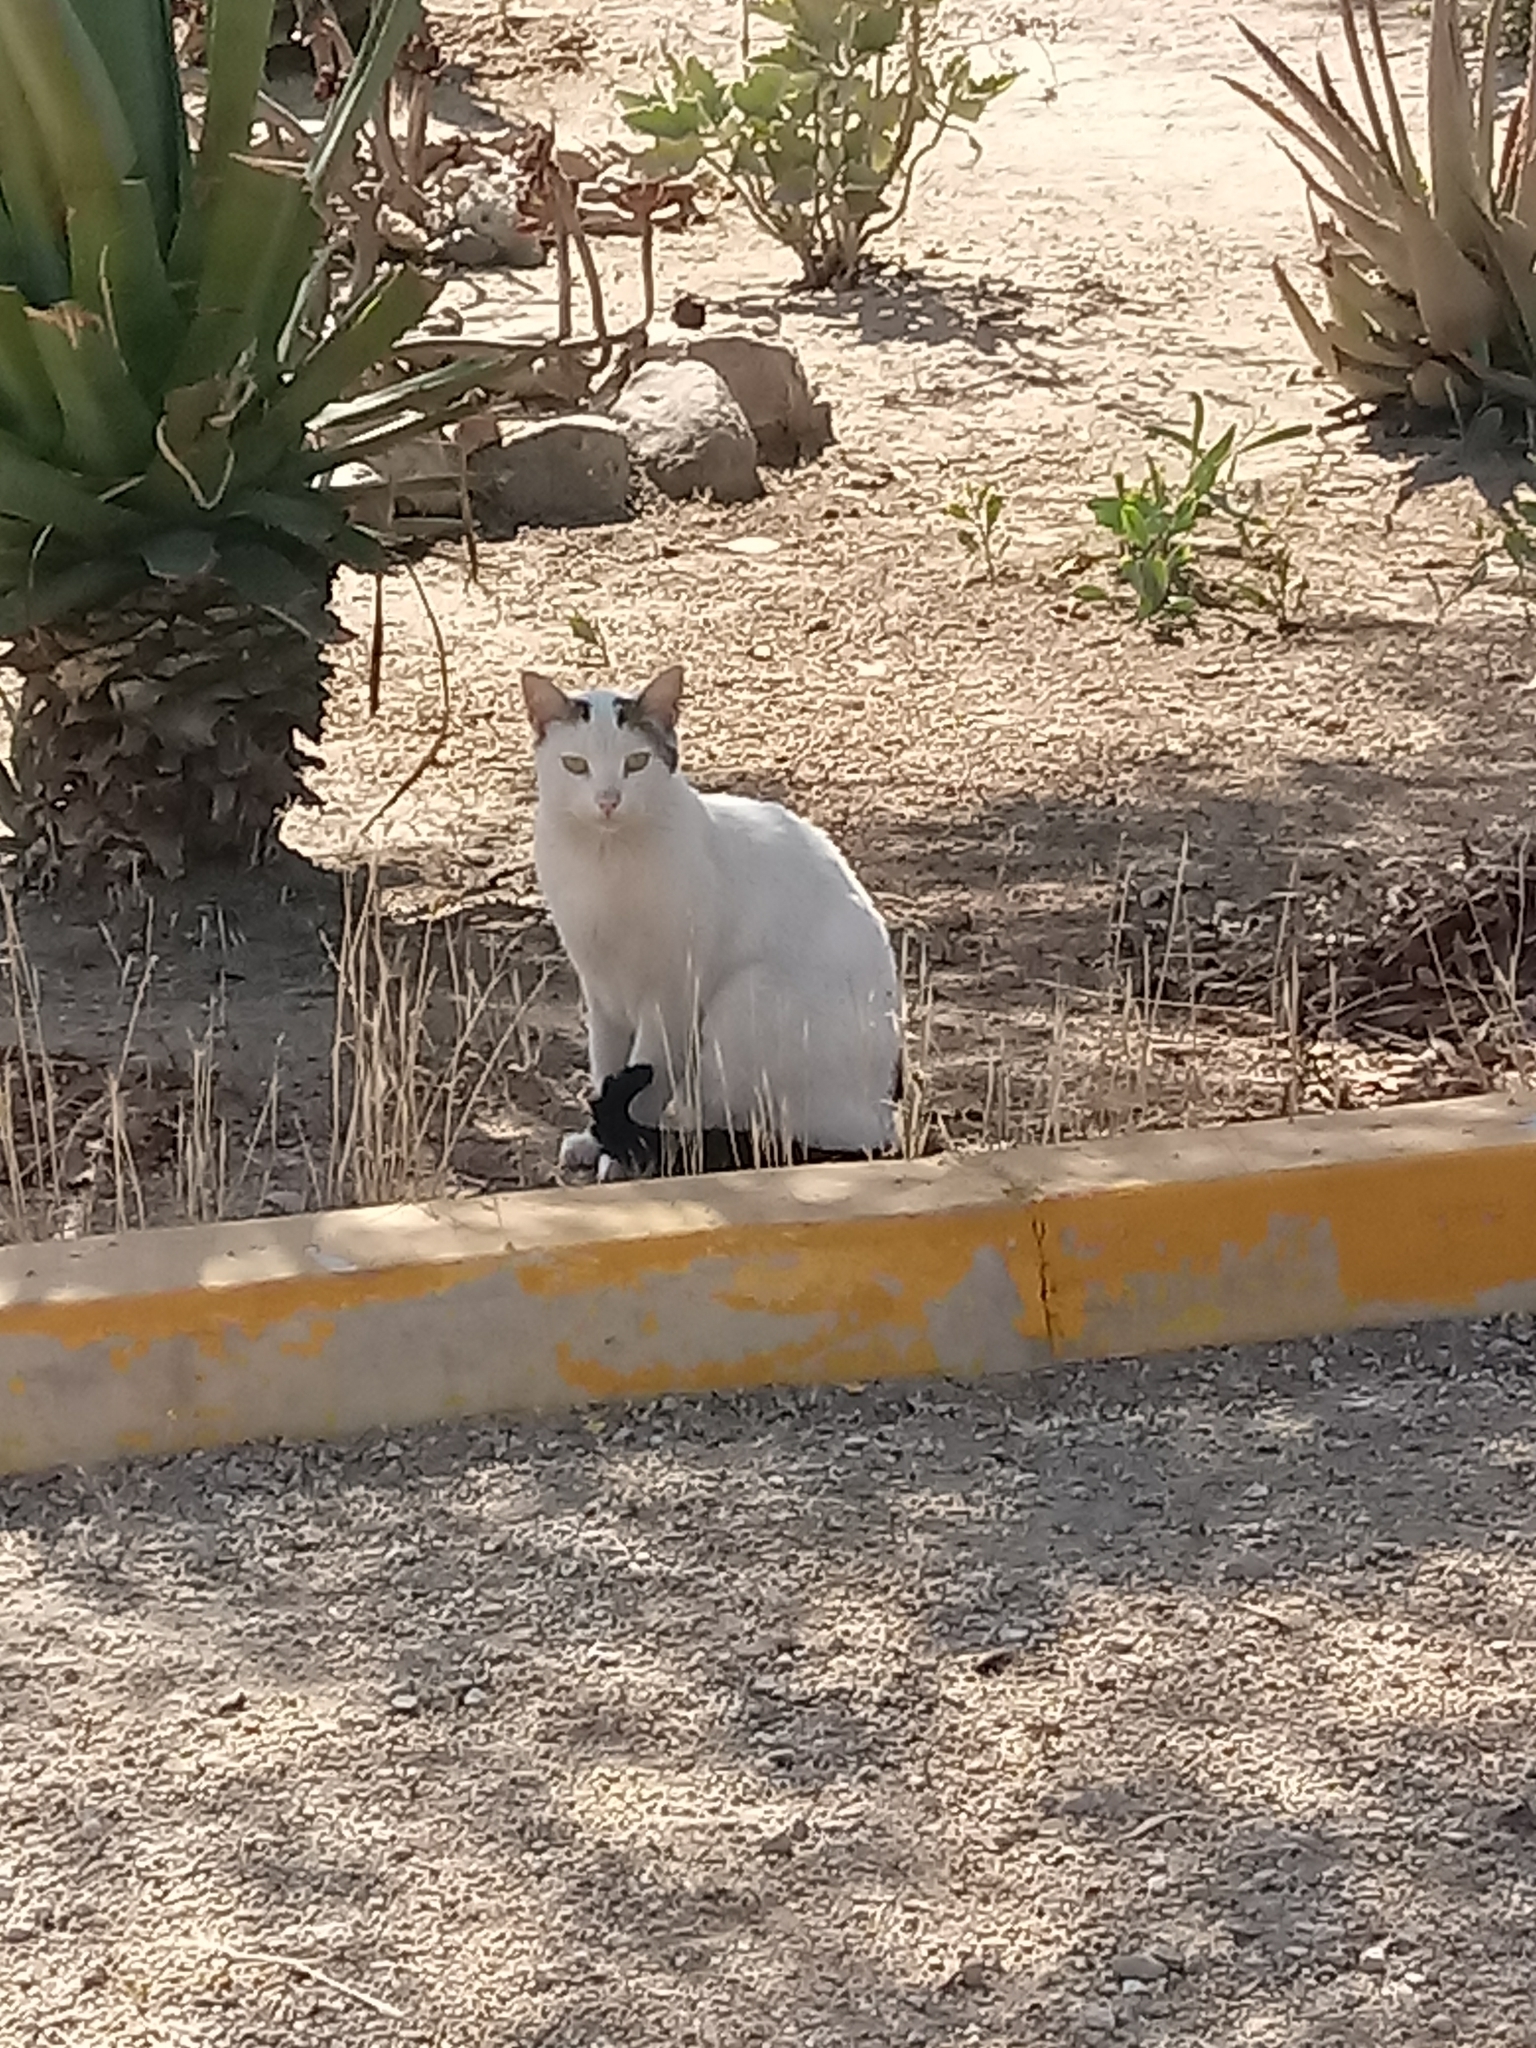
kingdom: Animalia
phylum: Chordata
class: Mammalia
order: Carnivora
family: Felidae
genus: Felis
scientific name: Felis catus
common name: Domestic cat
